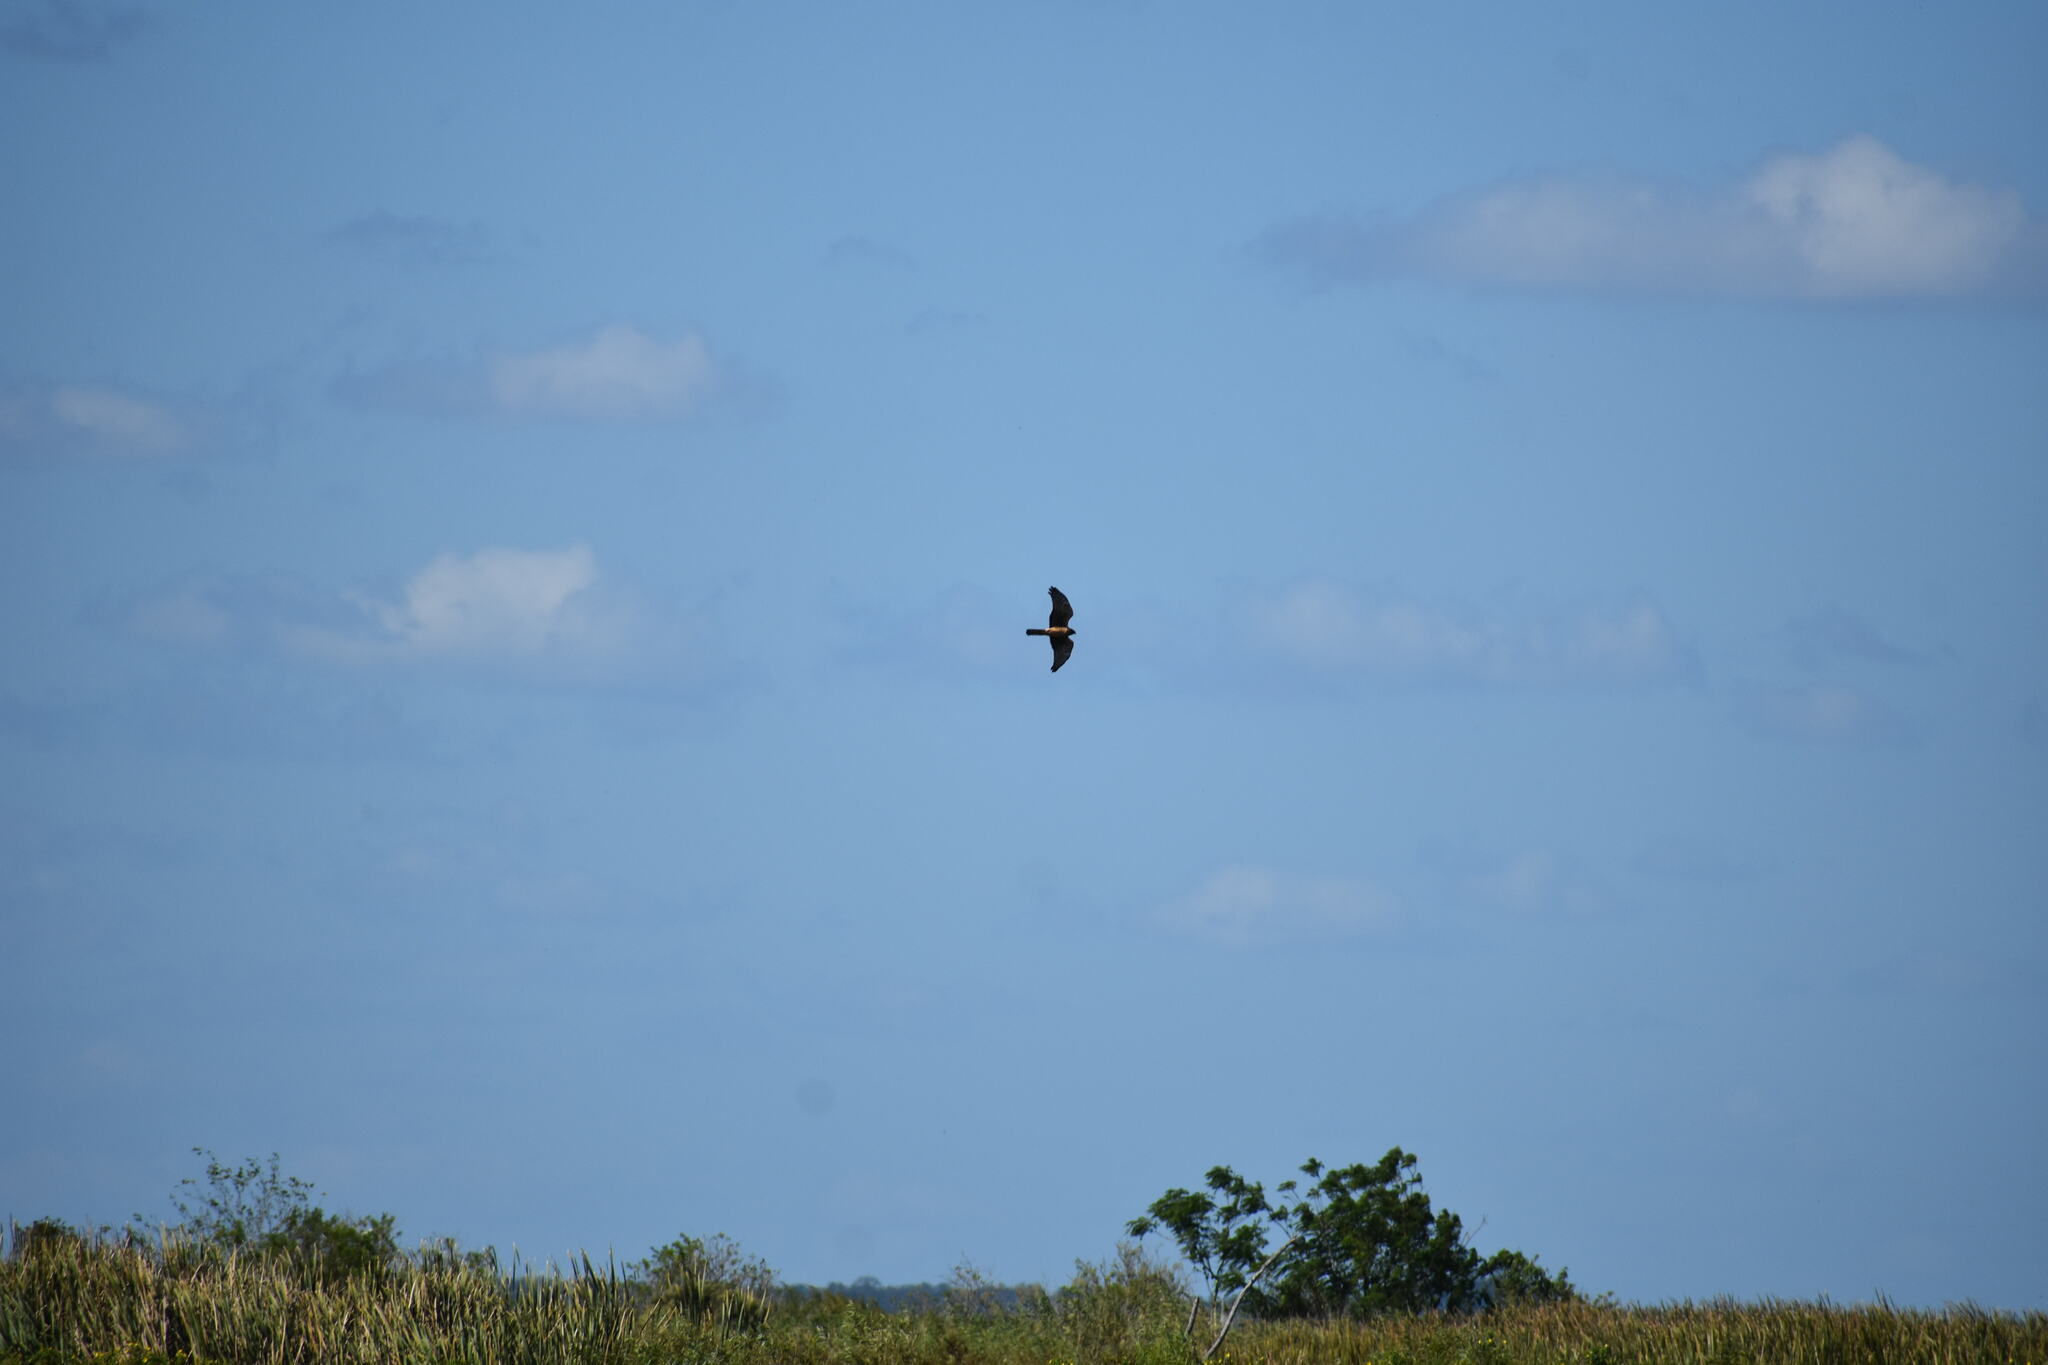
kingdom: Animalia
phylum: Chordata
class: Aves
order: Accipitriformes
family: Accipitridae
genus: Circus
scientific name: Circus cyaneus
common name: Hen harrier
